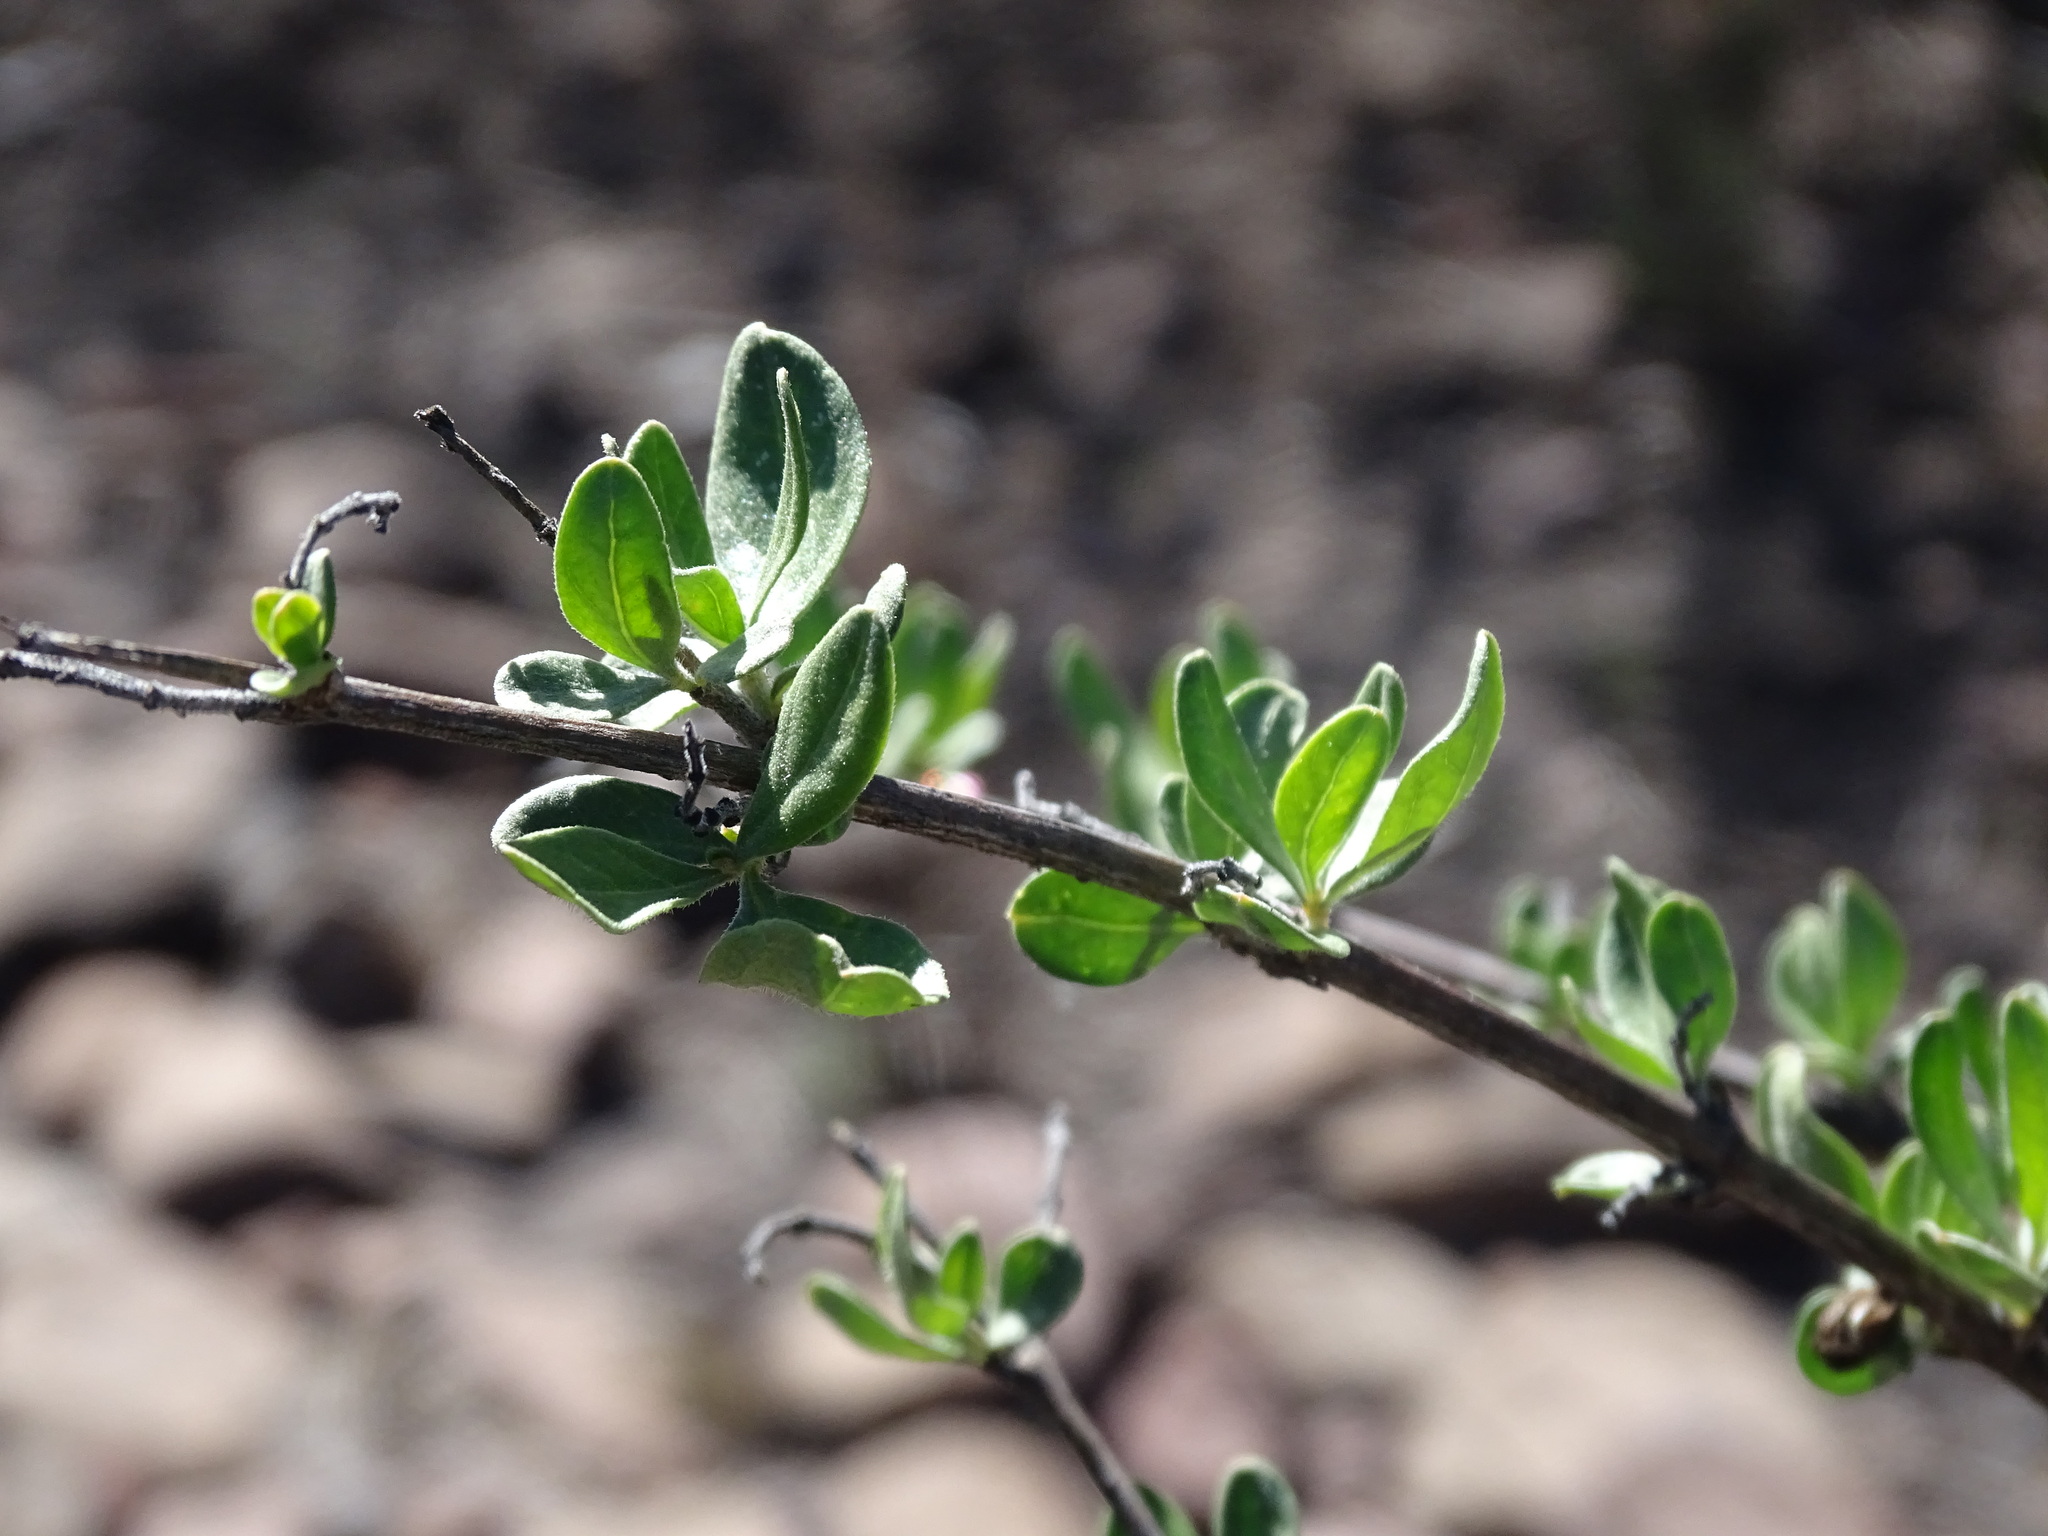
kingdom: Plantae
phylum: Tracheophyta
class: Magnoliopsida
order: Lamiales
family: Verbenaceae
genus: Citharexylum
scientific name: Citharexylum racemosum
